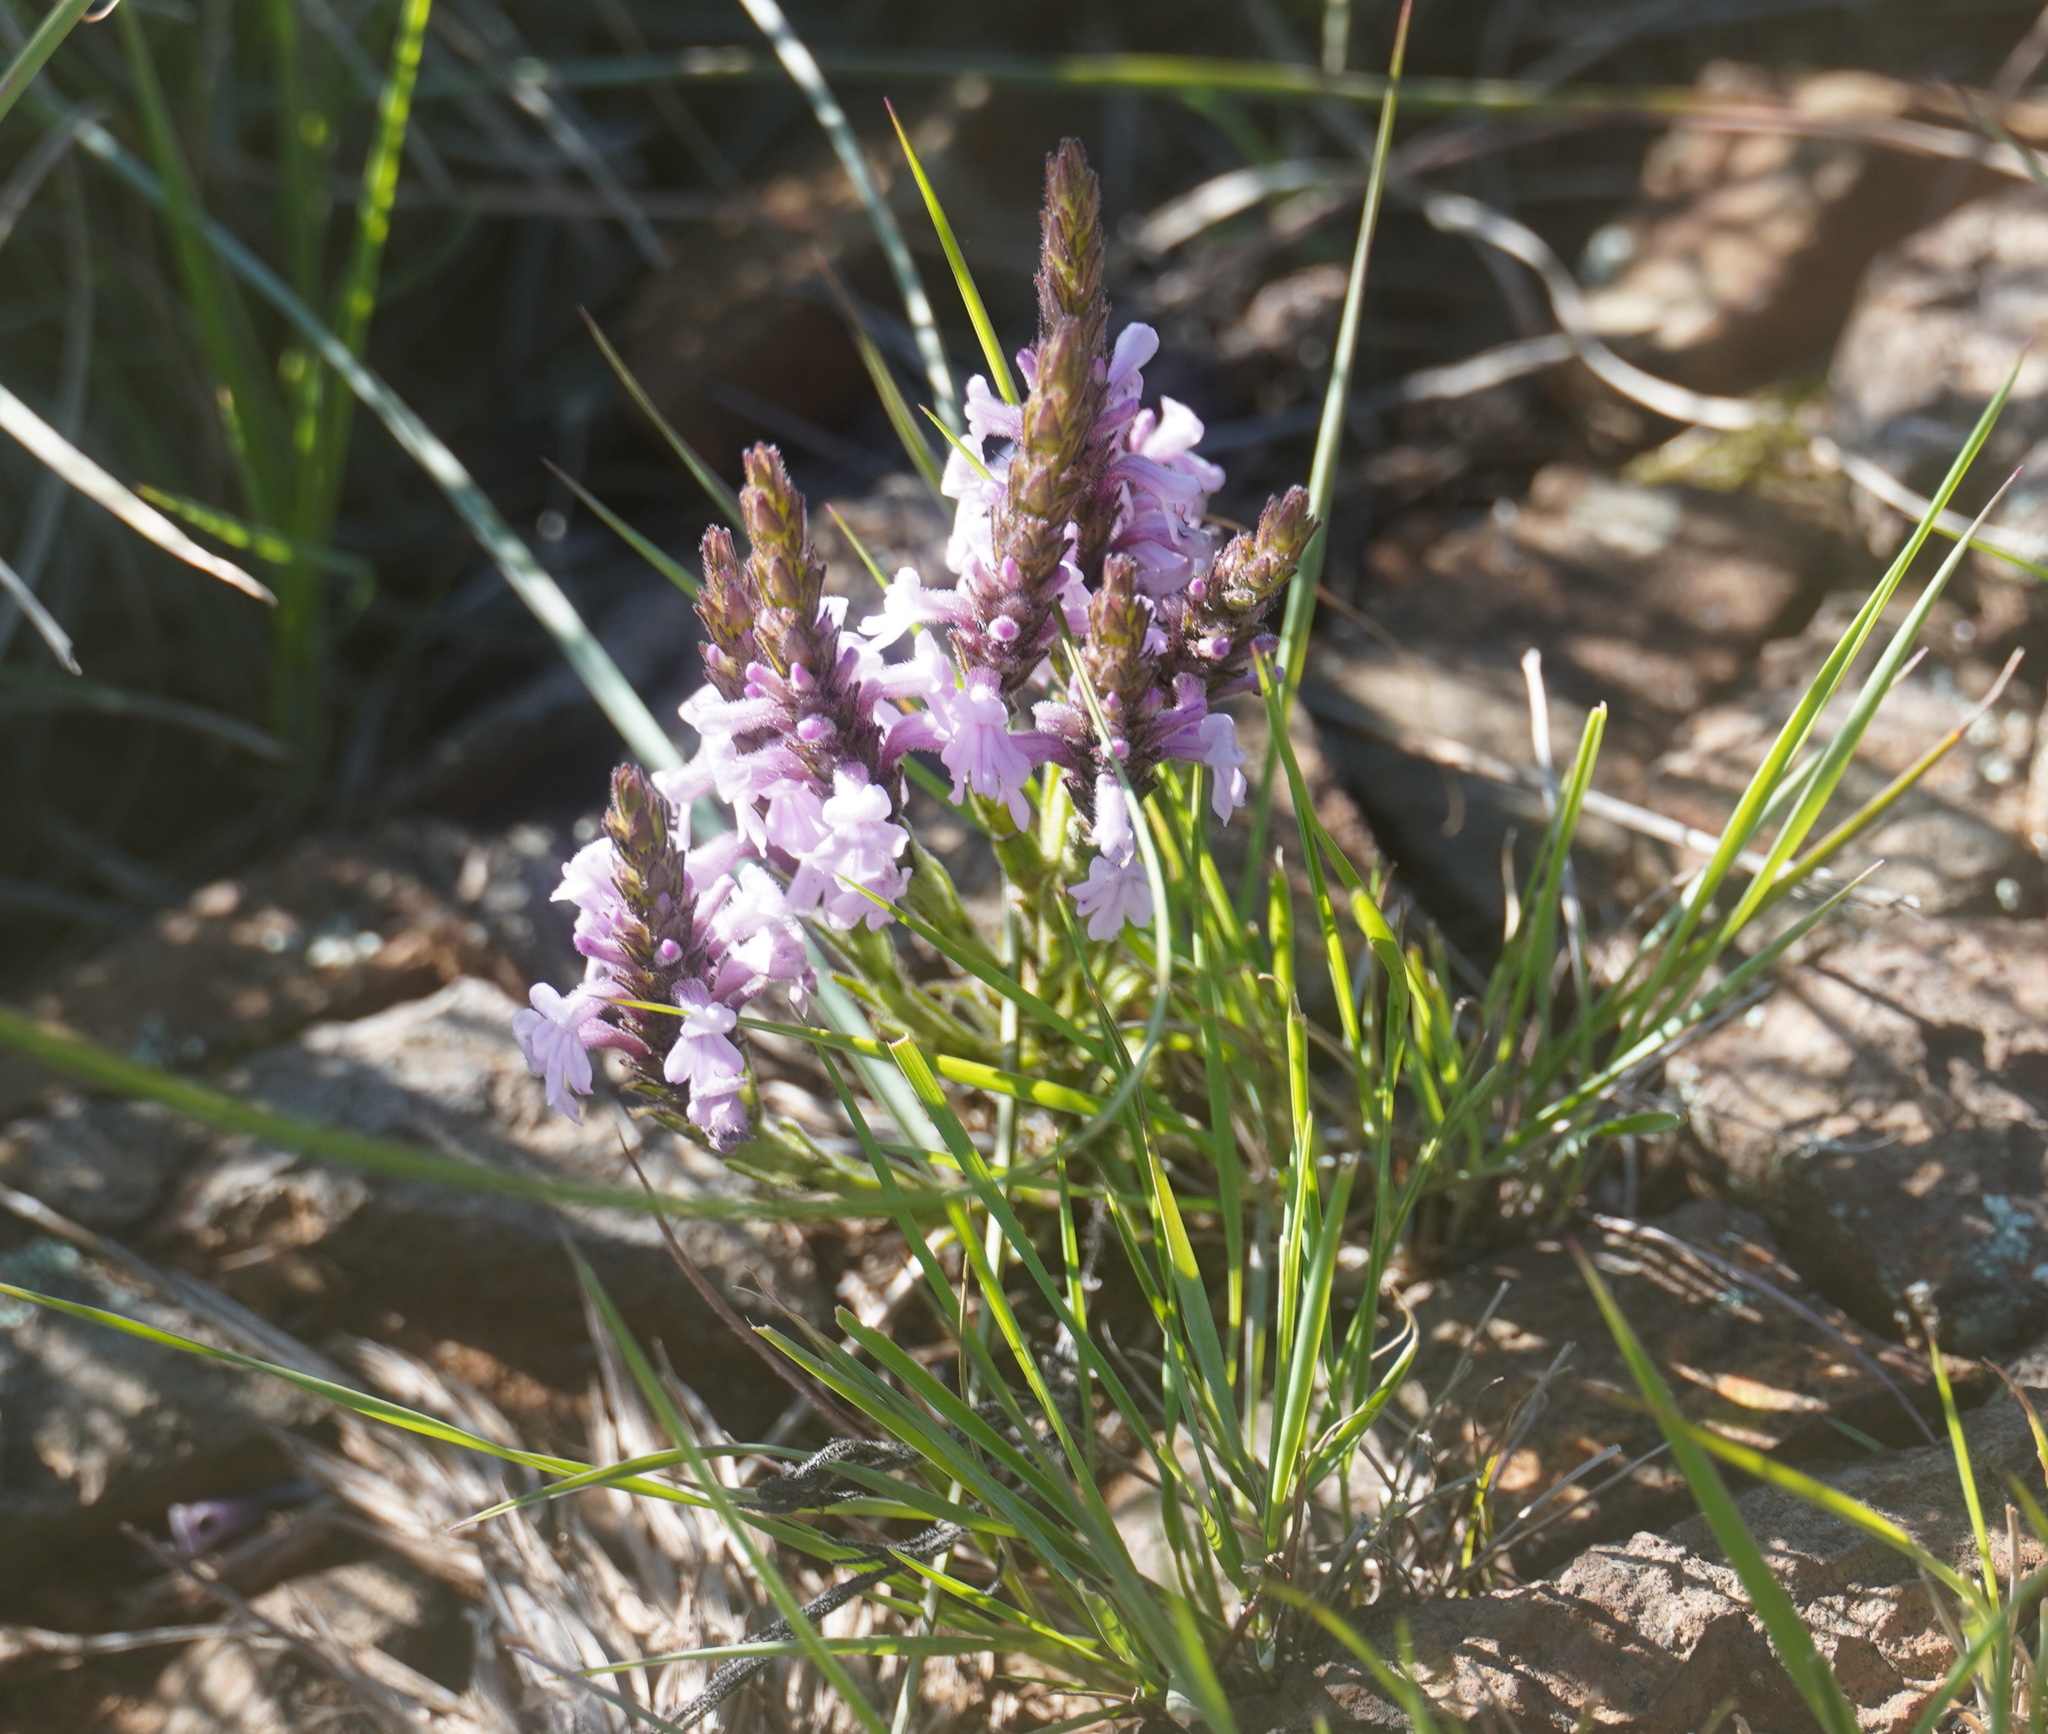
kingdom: Plantae
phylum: Tracheophyta
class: Magnoliopsida
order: Lamiales
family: Orobanchaceae
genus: Striga
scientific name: Striga bilabiata
